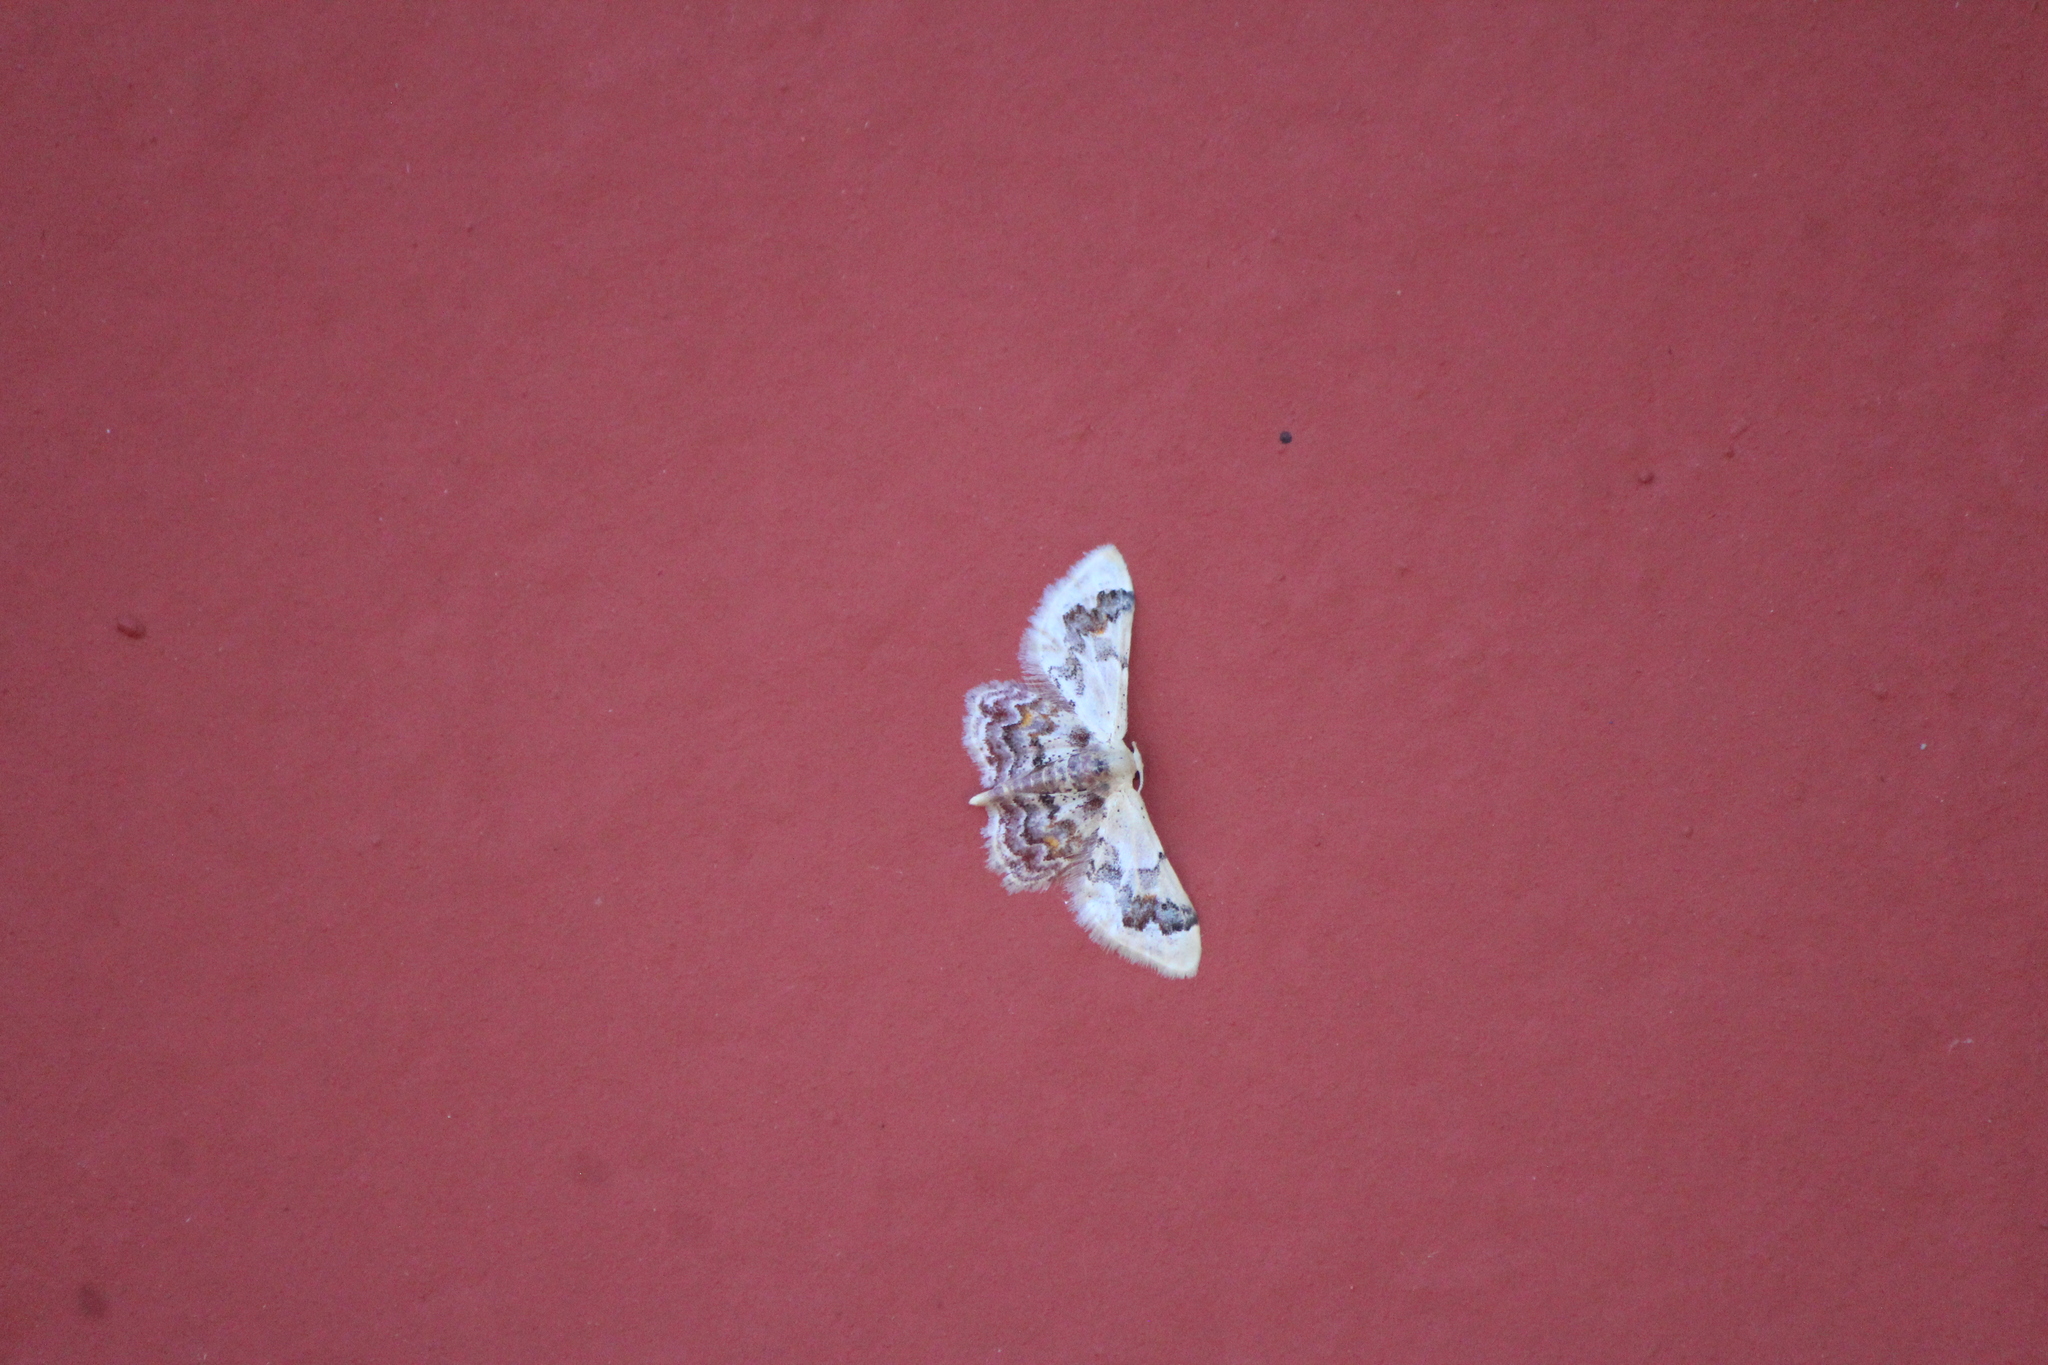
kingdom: Animalia
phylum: Arthropoda
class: Insecta
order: Lepidoptera
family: Geometridae
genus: Idaea
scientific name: Idaea asceta
